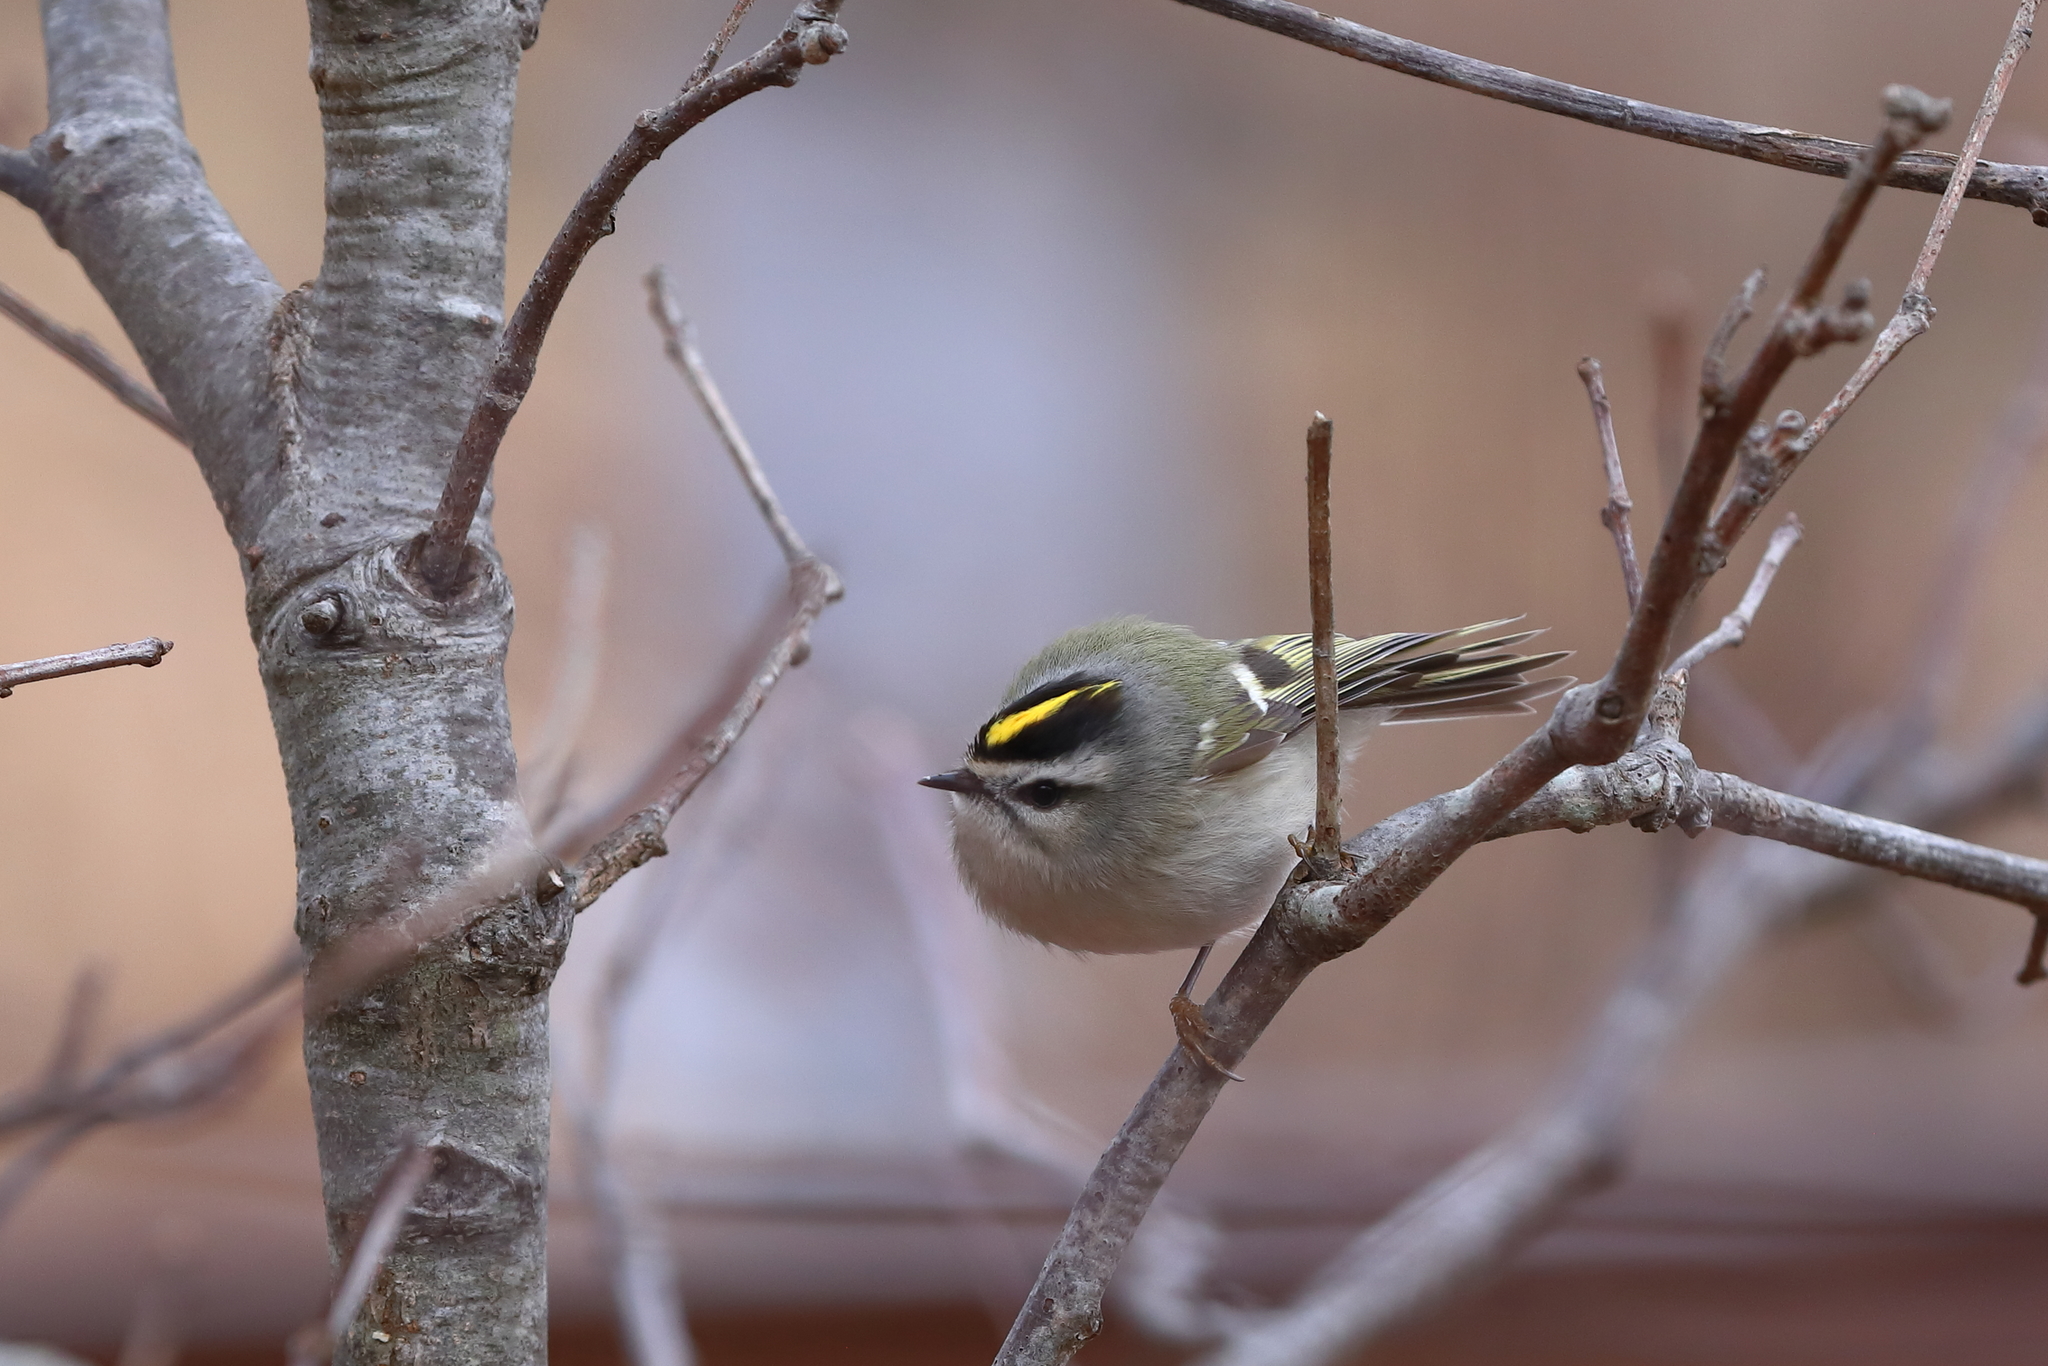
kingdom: Animalia
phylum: Chordata
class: Aves
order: Passeriformes
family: Regulidae
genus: Regulus
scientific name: Regulus satrapa
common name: Golden-crowned kinglet
